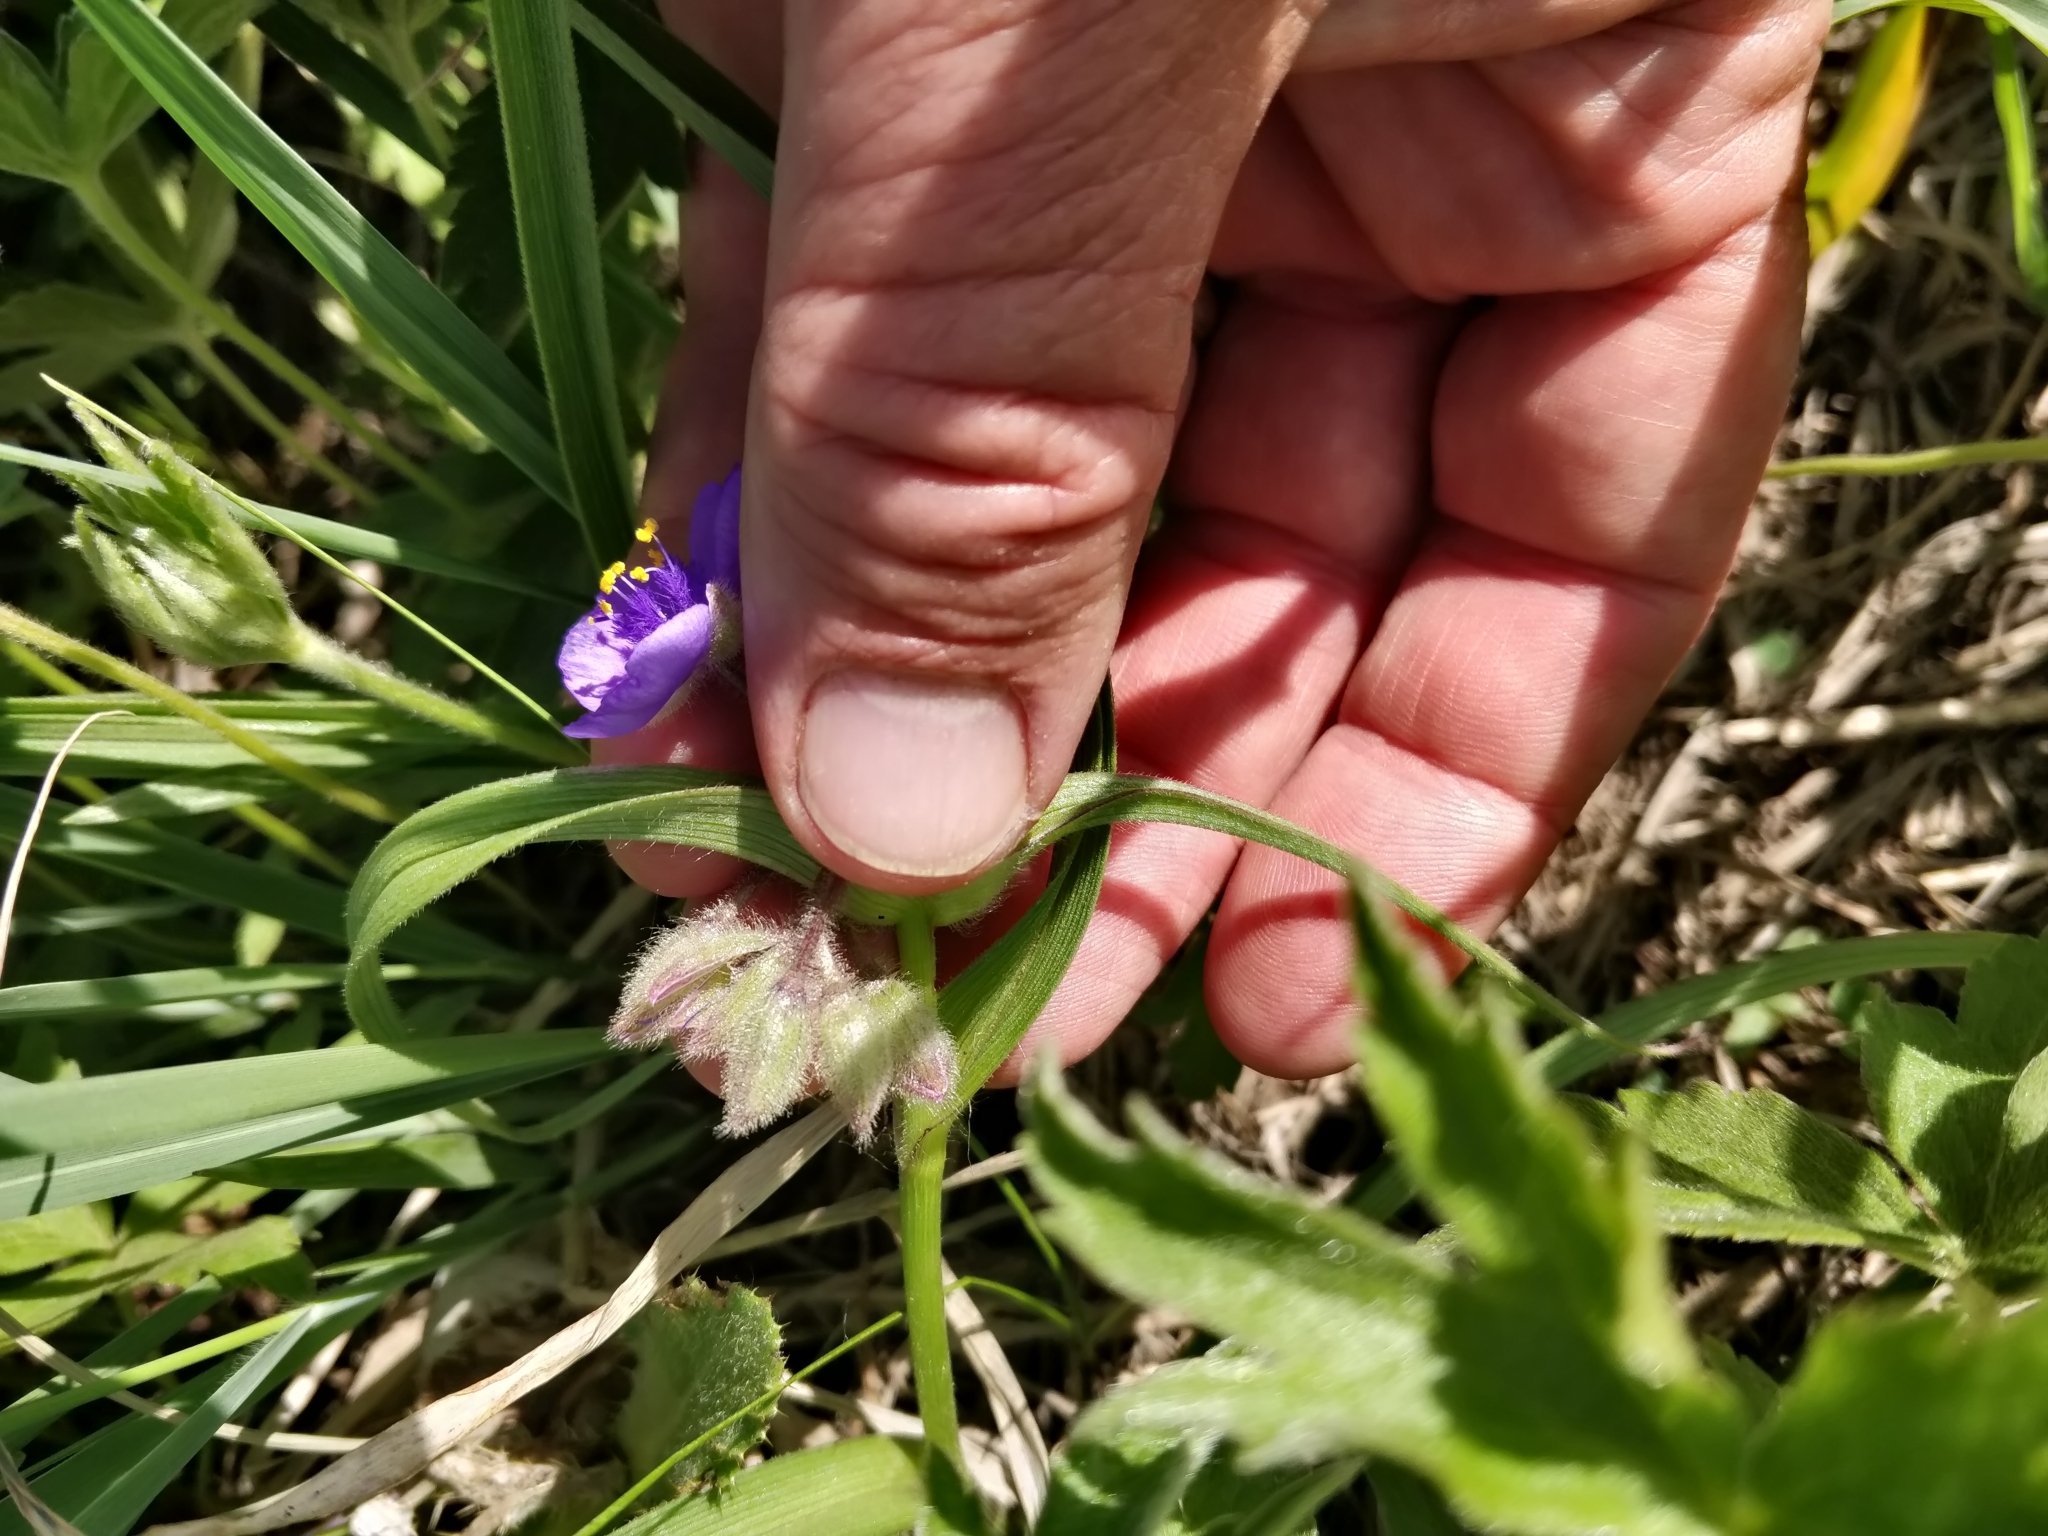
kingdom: Plantae
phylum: Tracheophyta
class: Liliopsida
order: Commelinales
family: Commelinaceae
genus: Tradescantia
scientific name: Tradescantia bracteata
